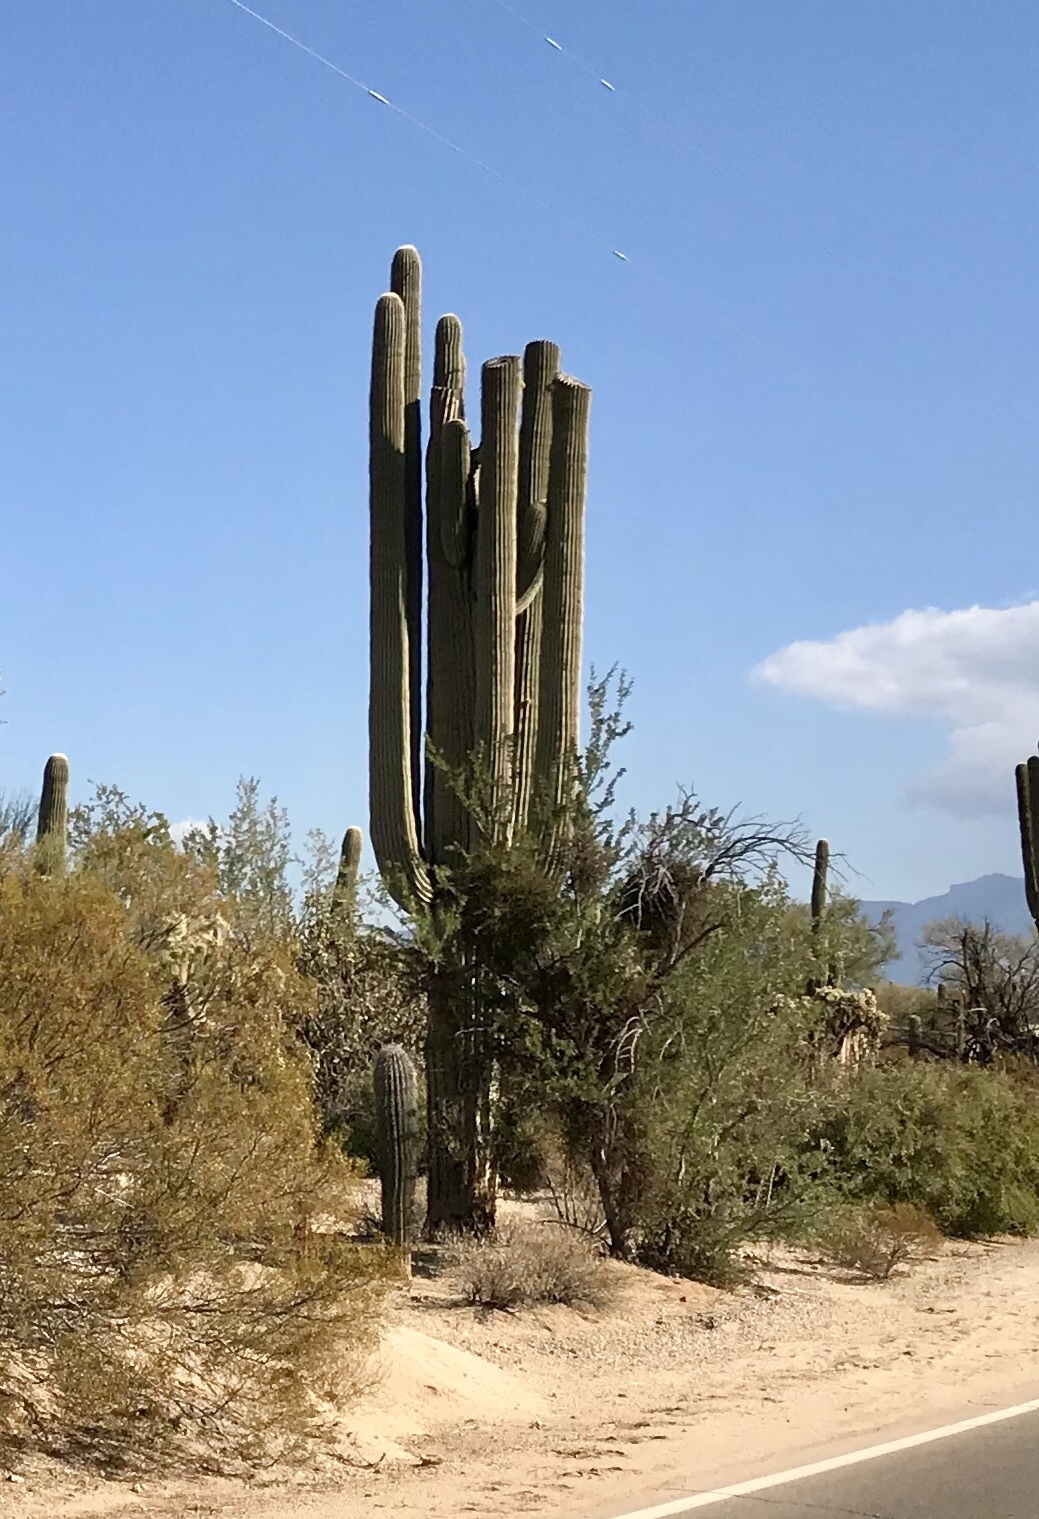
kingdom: Plantae
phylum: Tracheophyta
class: Magnoliopsida
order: Caryophyllales
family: Cactaceae
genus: Carnegiea
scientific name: Carnegiea gigantea
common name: Saguaro
